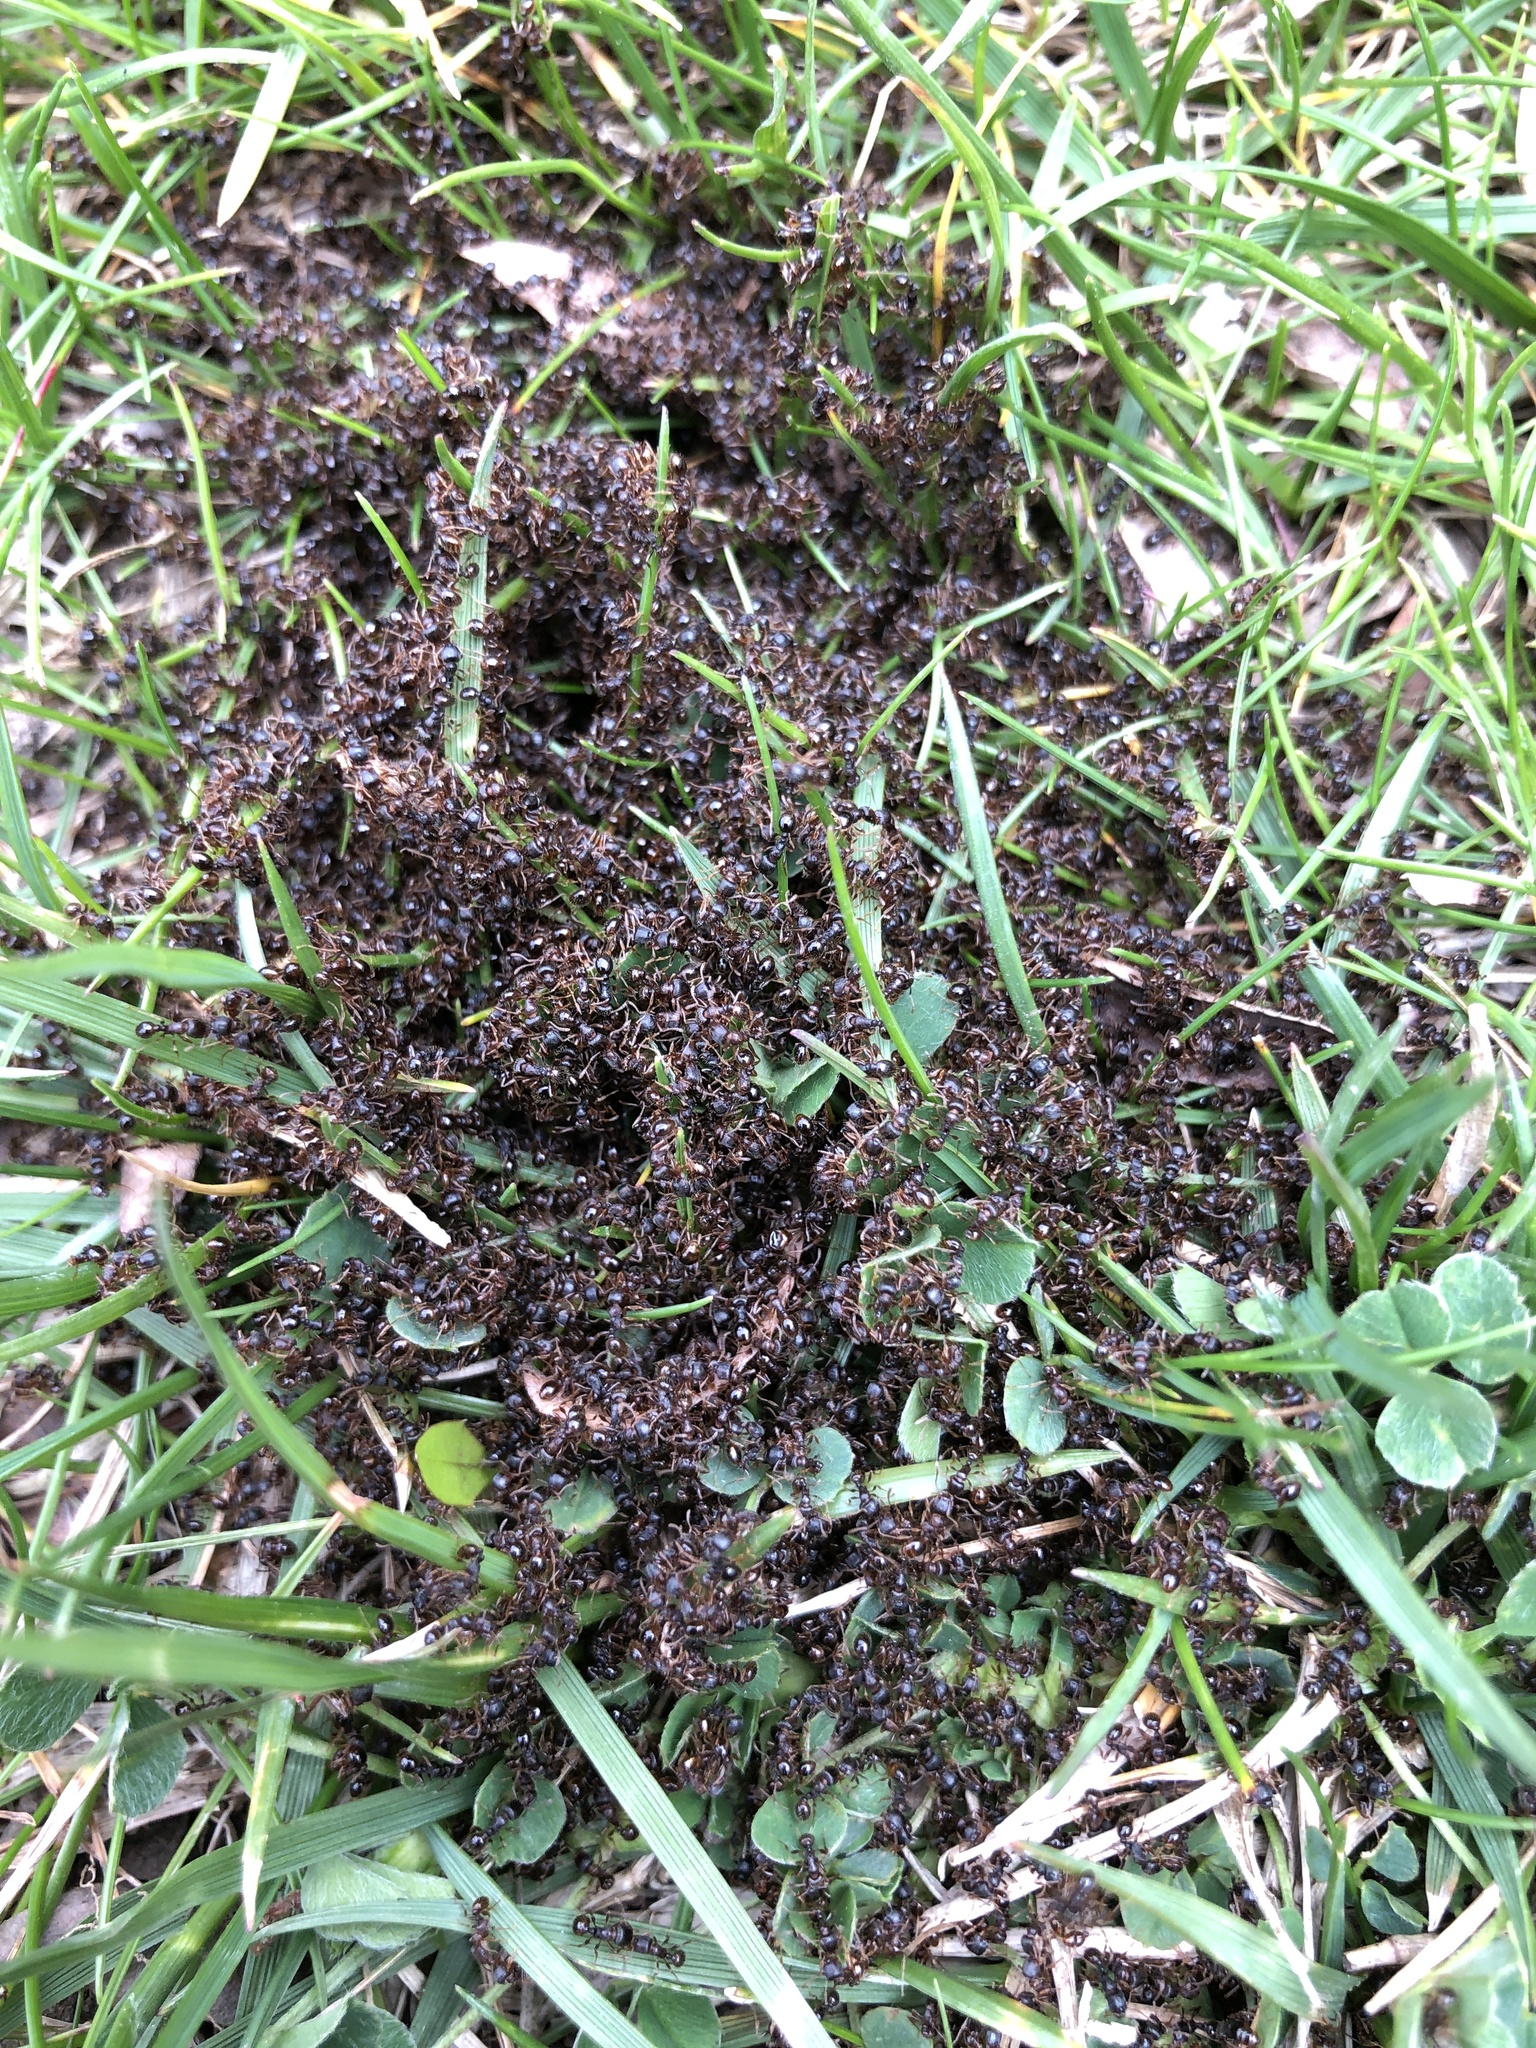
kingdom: Animalia
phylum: Arthropoda
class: Insecta
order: Hymenoptera
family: Formicidae
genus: Tetramorium
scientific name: Tetramorium immigrans
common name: Pavement ant
